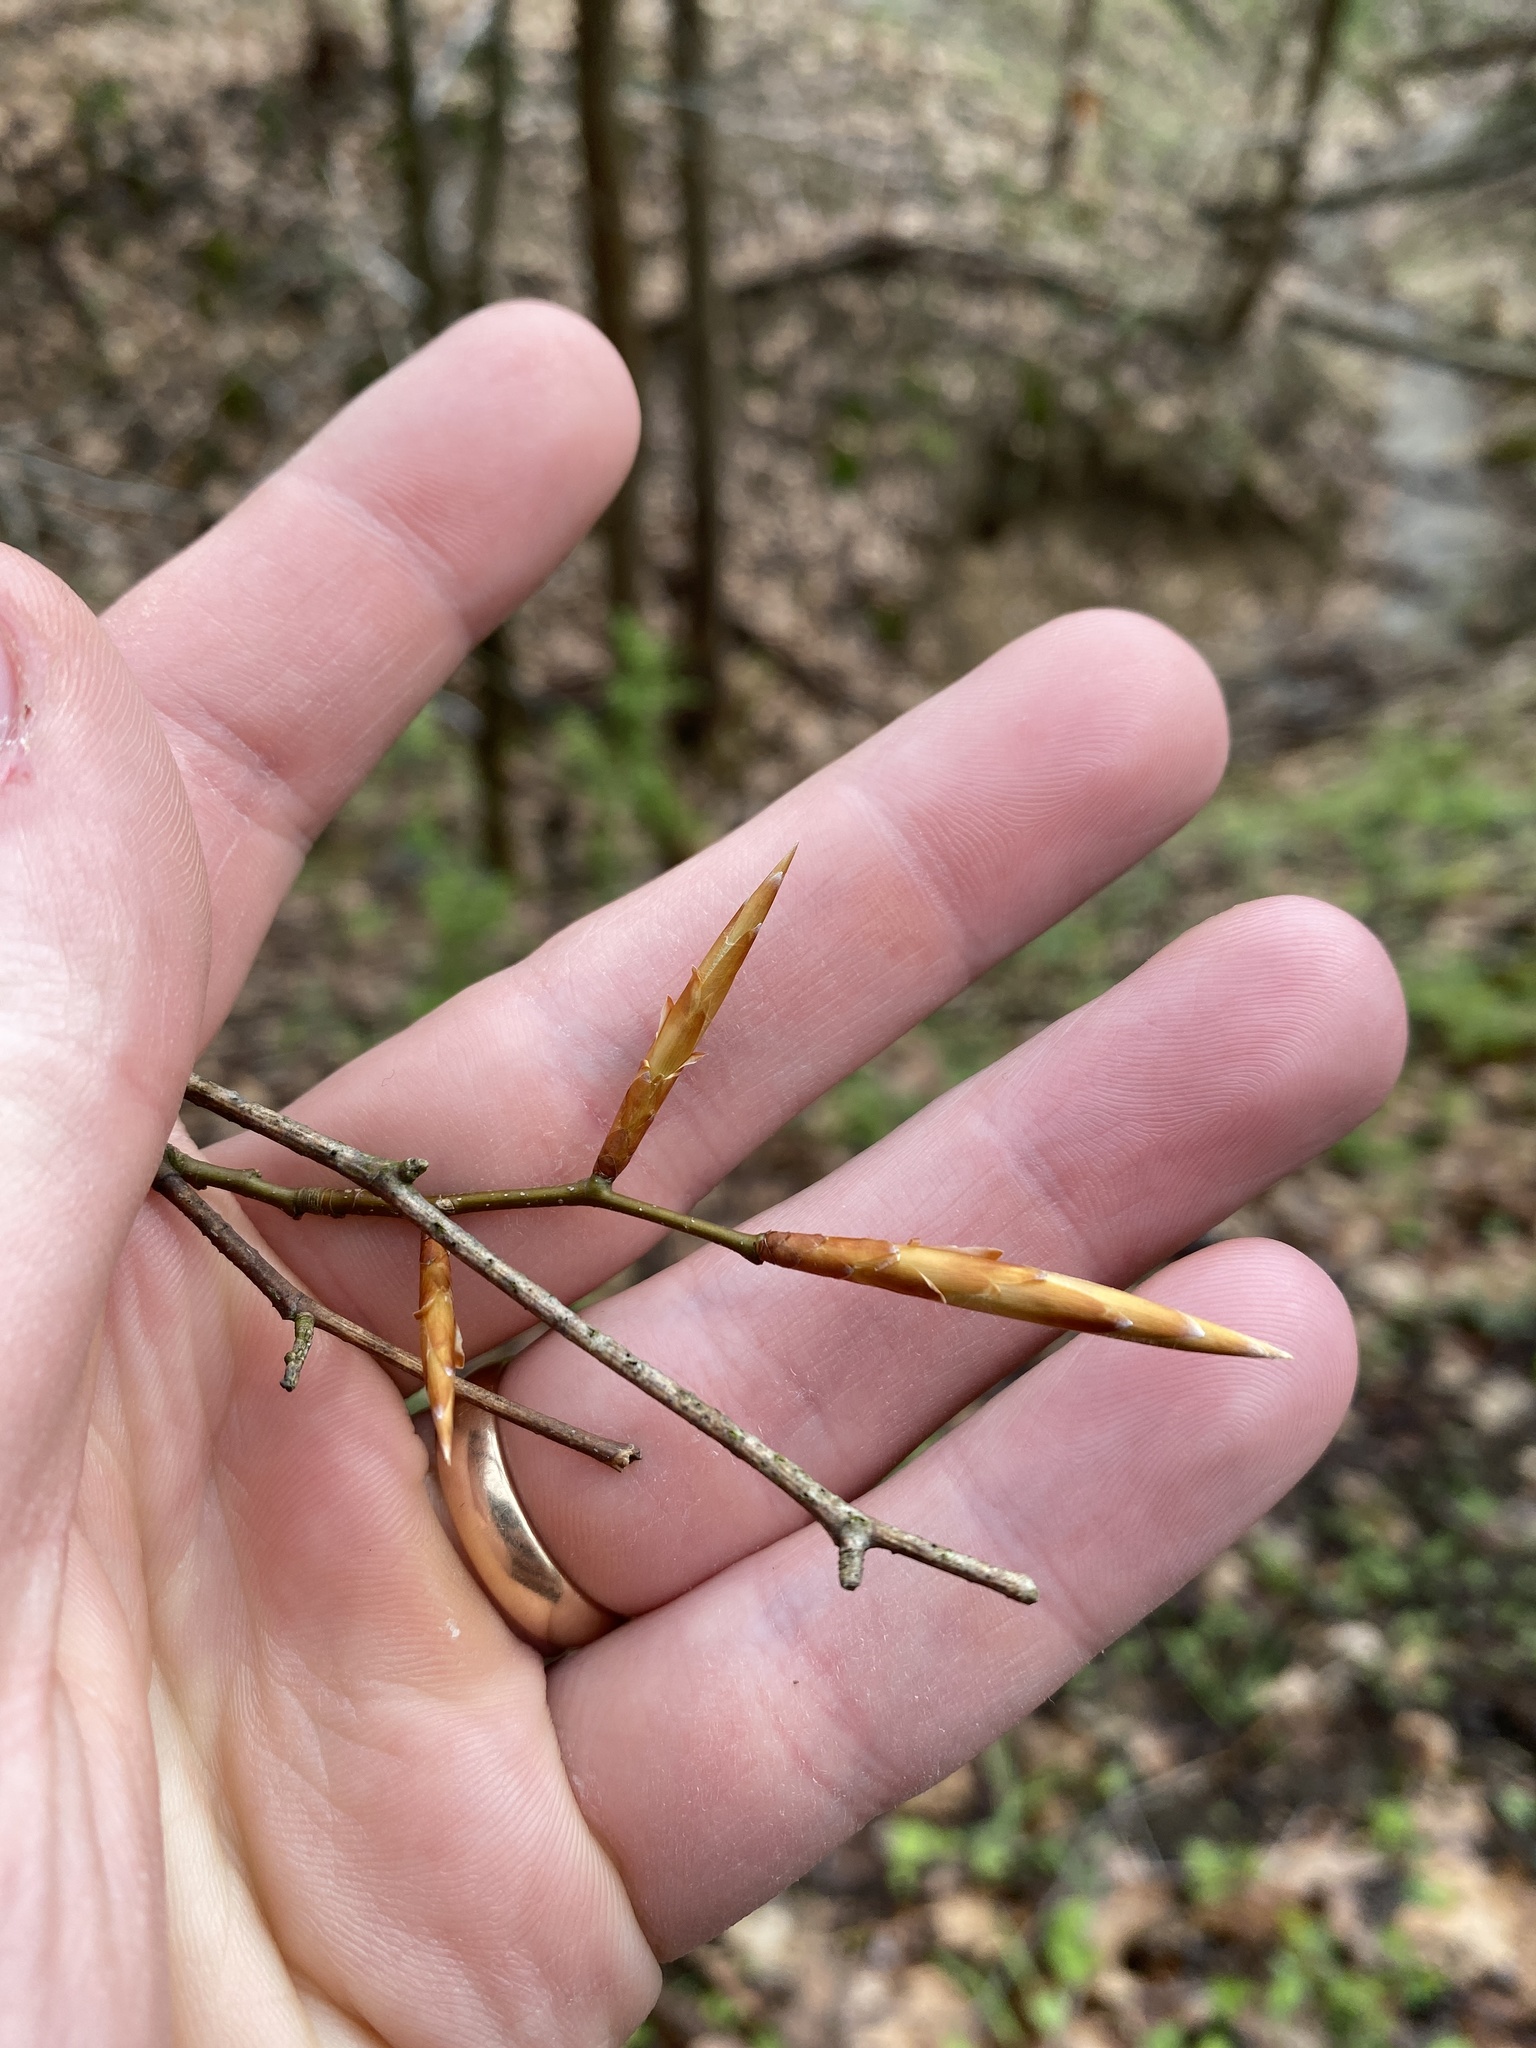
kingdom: Plantae
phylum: Tracheophyta
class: Magnoliopsida
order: Fagales
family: Fagaceae
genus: Fagus
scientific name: Fagus grandifolia
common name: American beech
